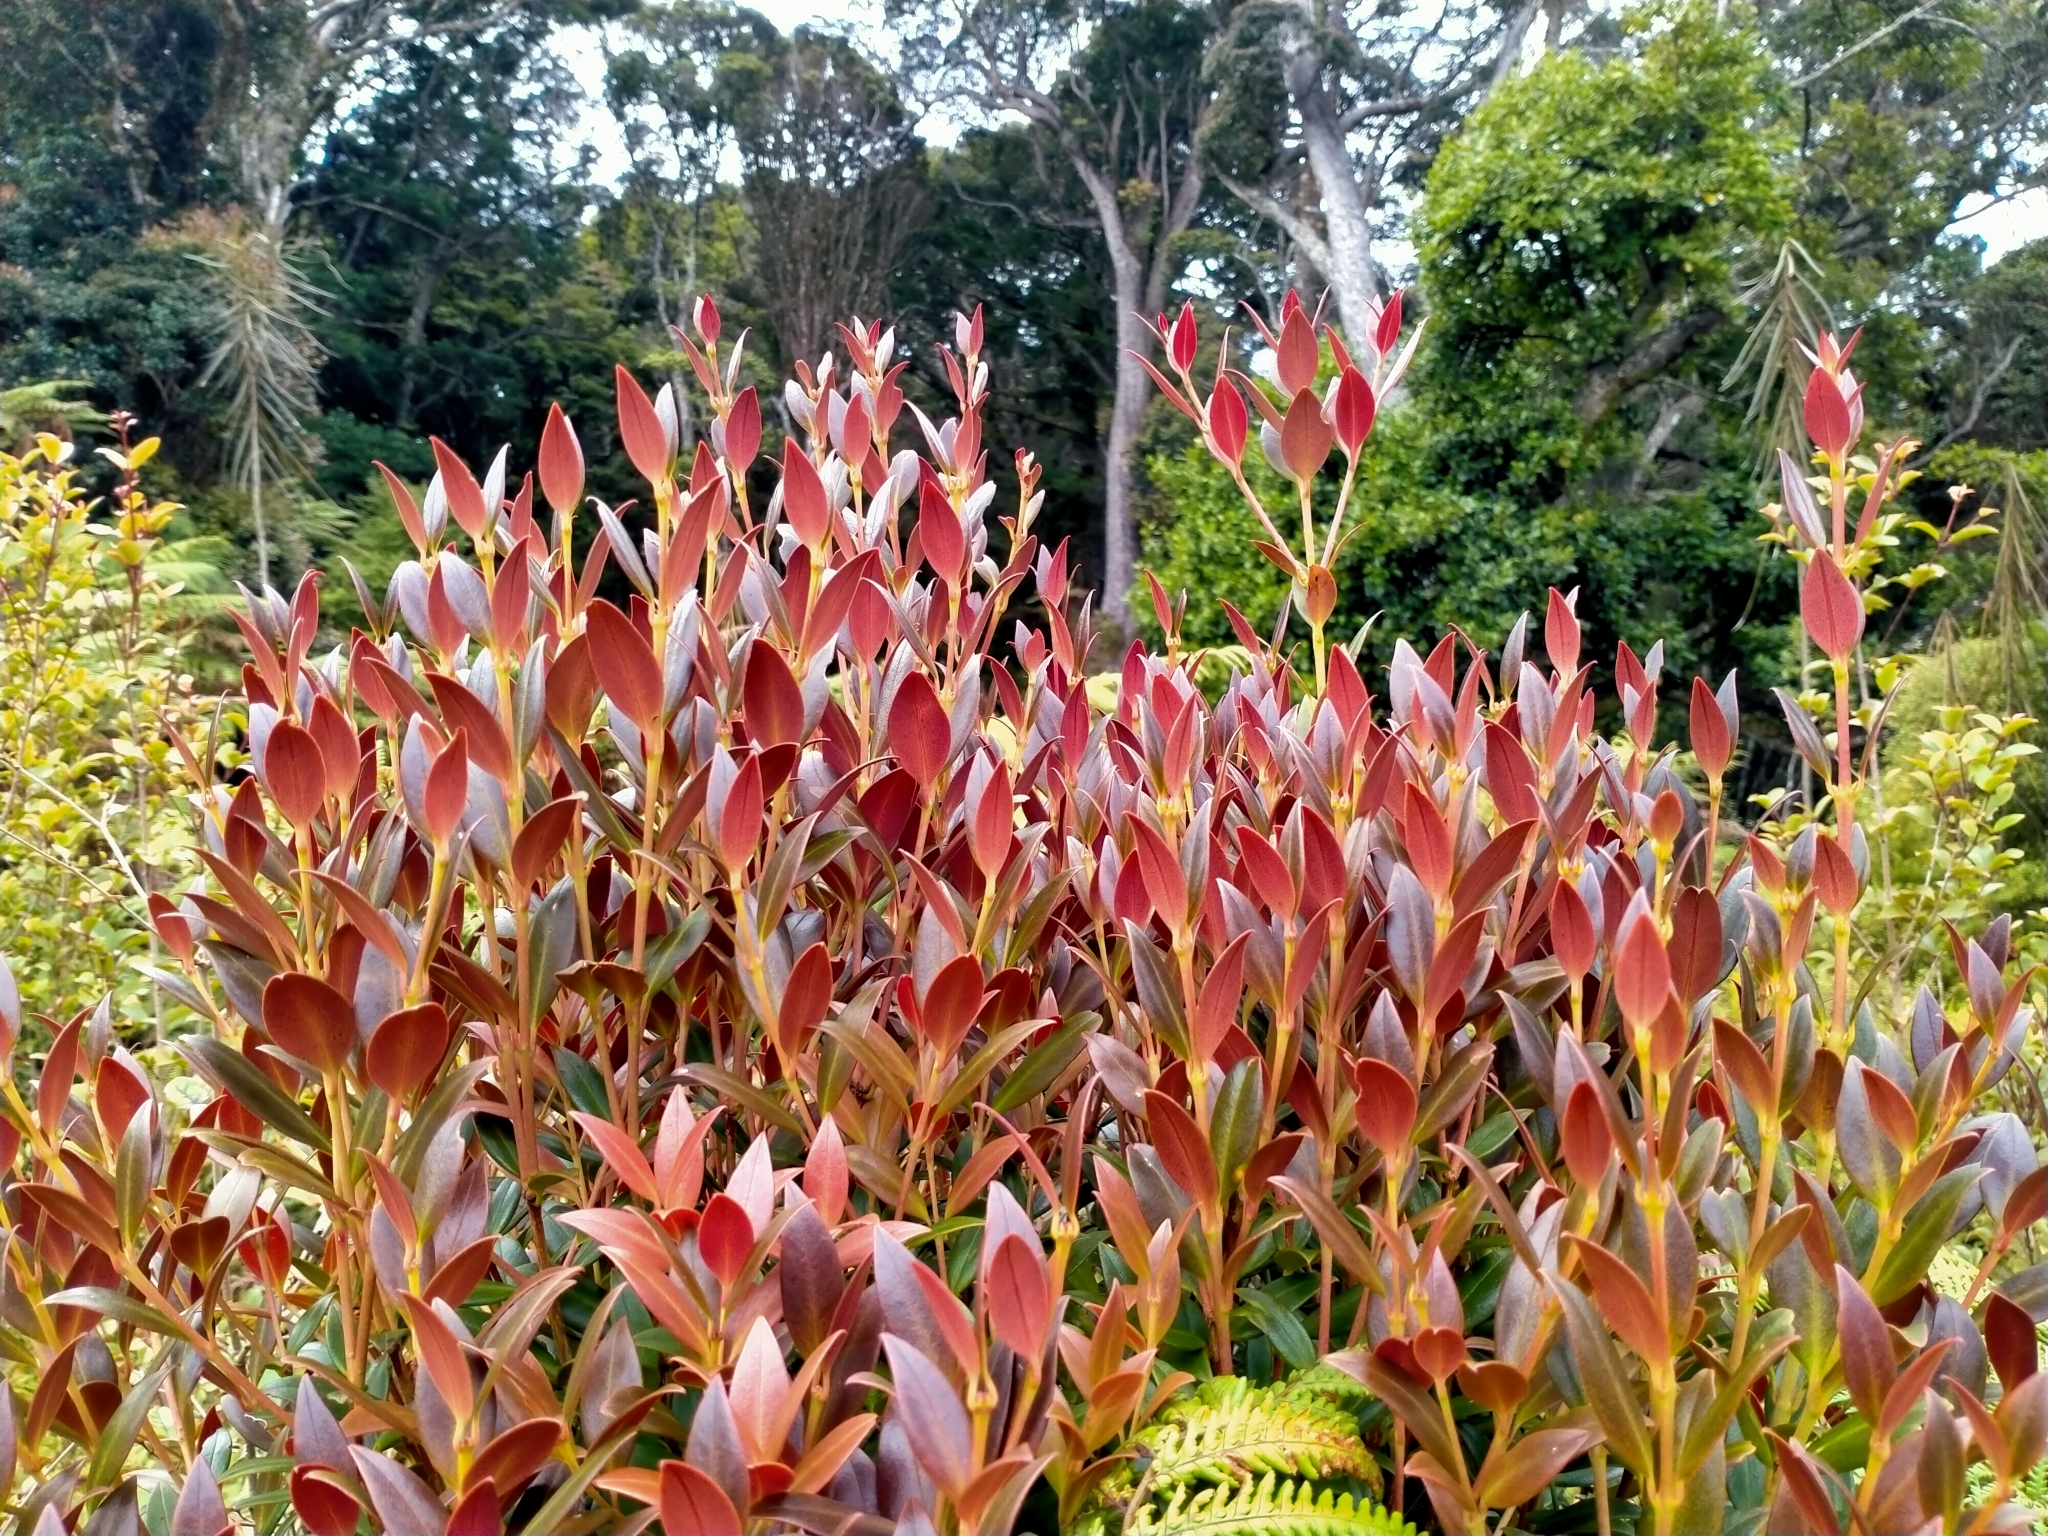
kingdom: Plantae
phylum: Tracheophyta
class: Magnoliopsida
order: Myrtales
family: Myrtaceae
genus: Metrosideros
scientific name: Metrosideros umbellata
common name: Southern rata
